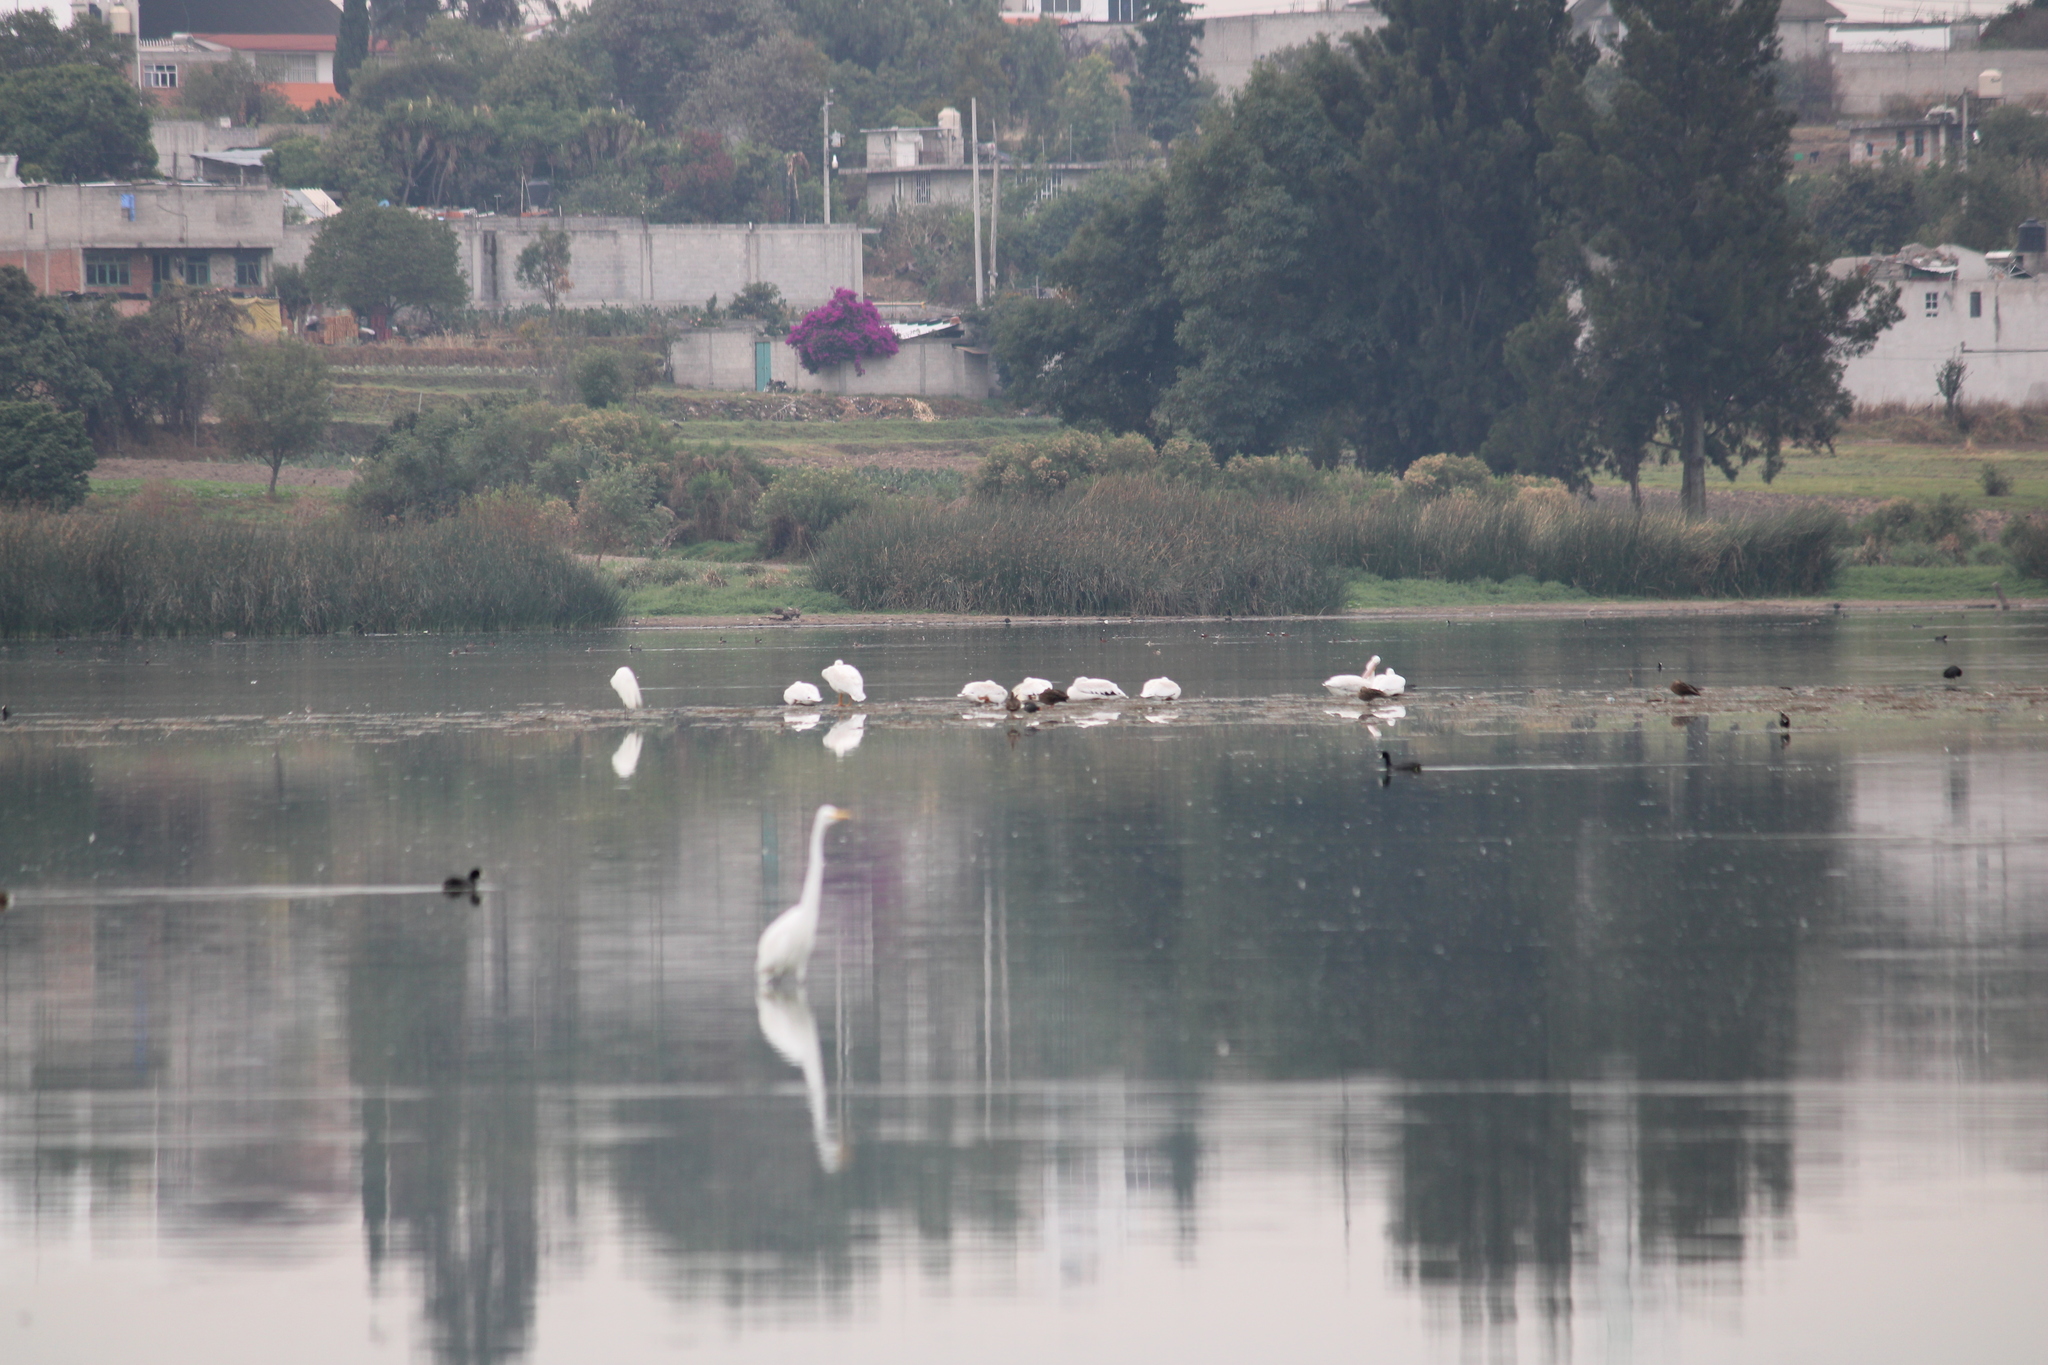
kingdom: Animalia
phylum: Chordata
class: Aves
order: Pelecaniformes
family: Pelecanidae
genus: Pelecanus
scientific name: Pelecanus erythrorhynchos
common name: American white pelican
